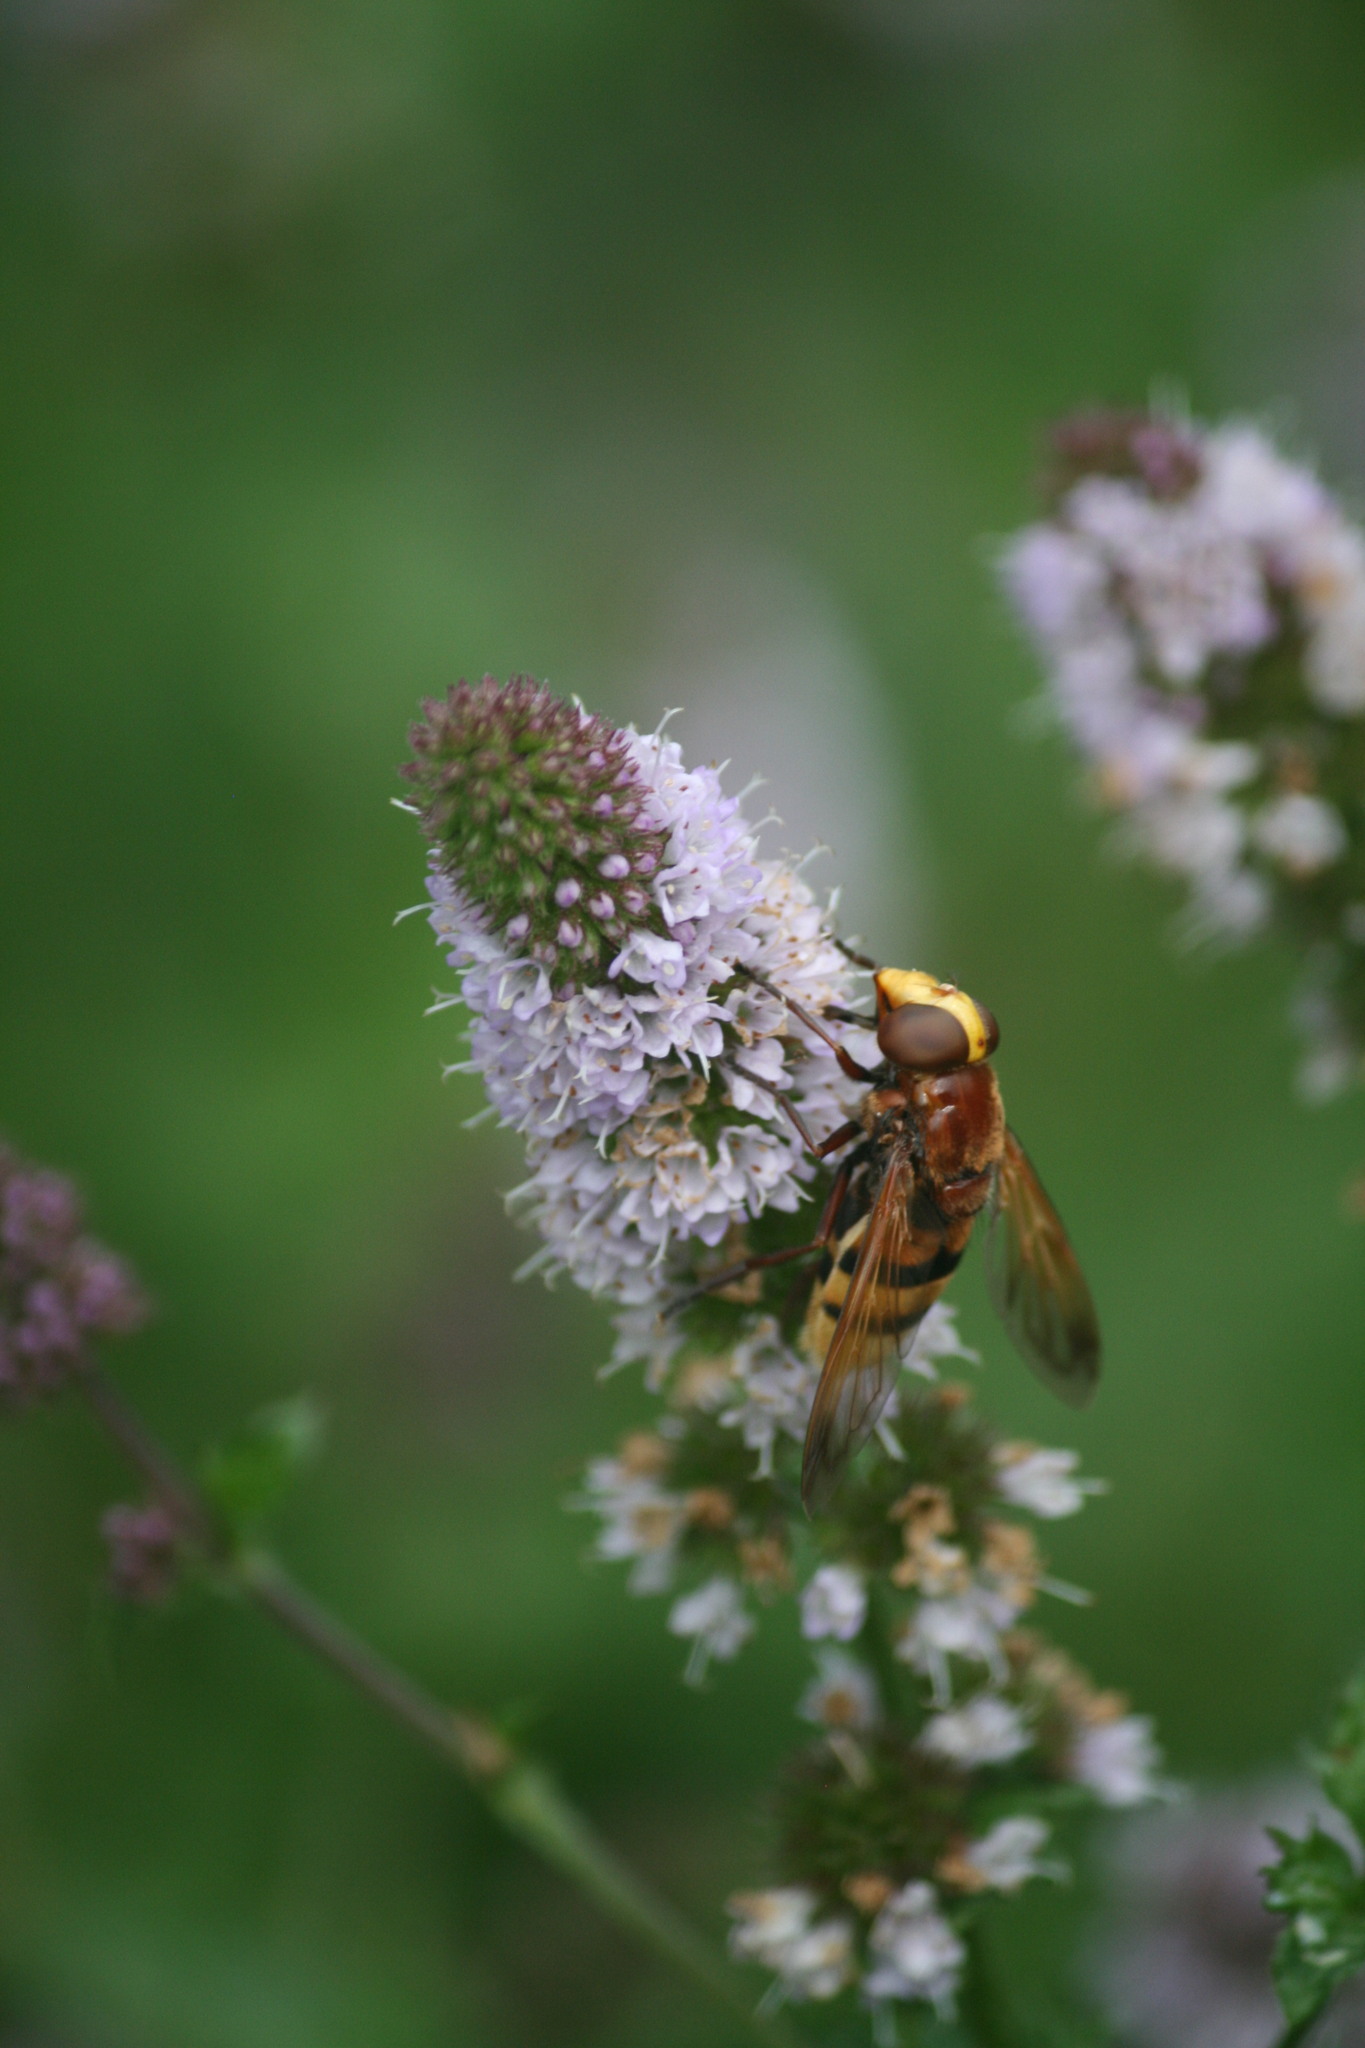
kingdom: Animalia
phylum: Arthropoda
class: Insecta
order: Diptera
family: Syrphidae
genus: Volucella
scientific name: Volucella zonaria
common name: Hornet hoverfly
